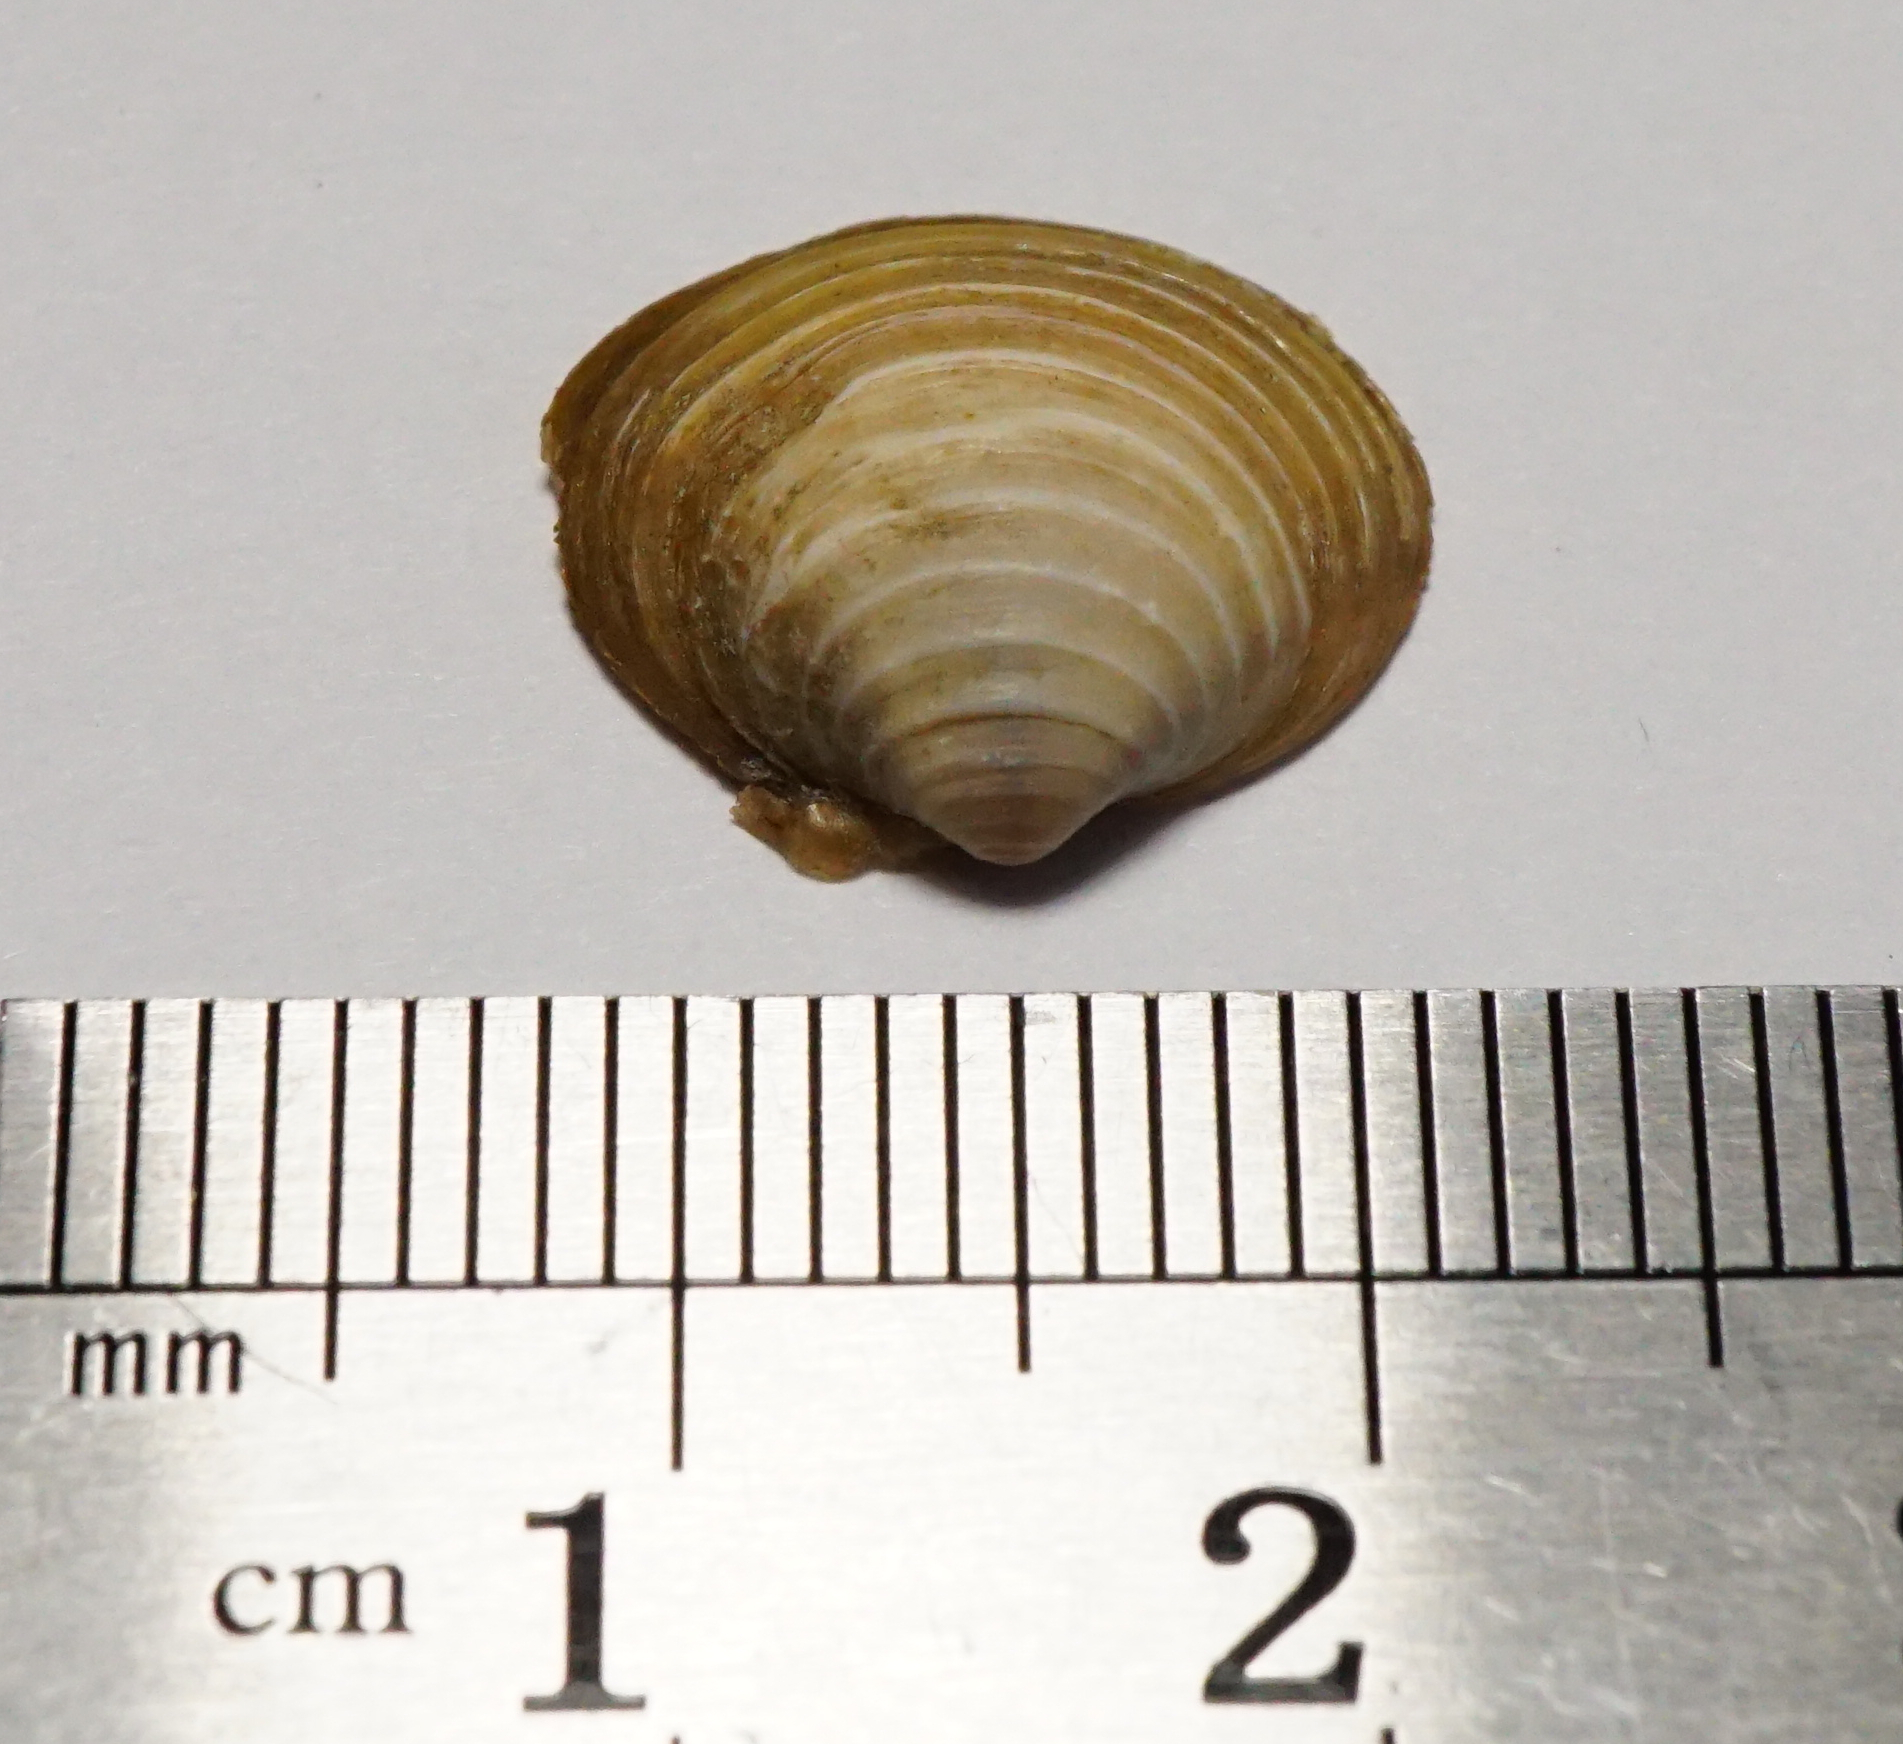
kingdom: Animalia
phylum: Mollusca
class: Bivalvia
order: Venerida
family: Cyrenidae
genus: Corbicula
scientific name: Corbicula fluminea
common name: Asian clam
